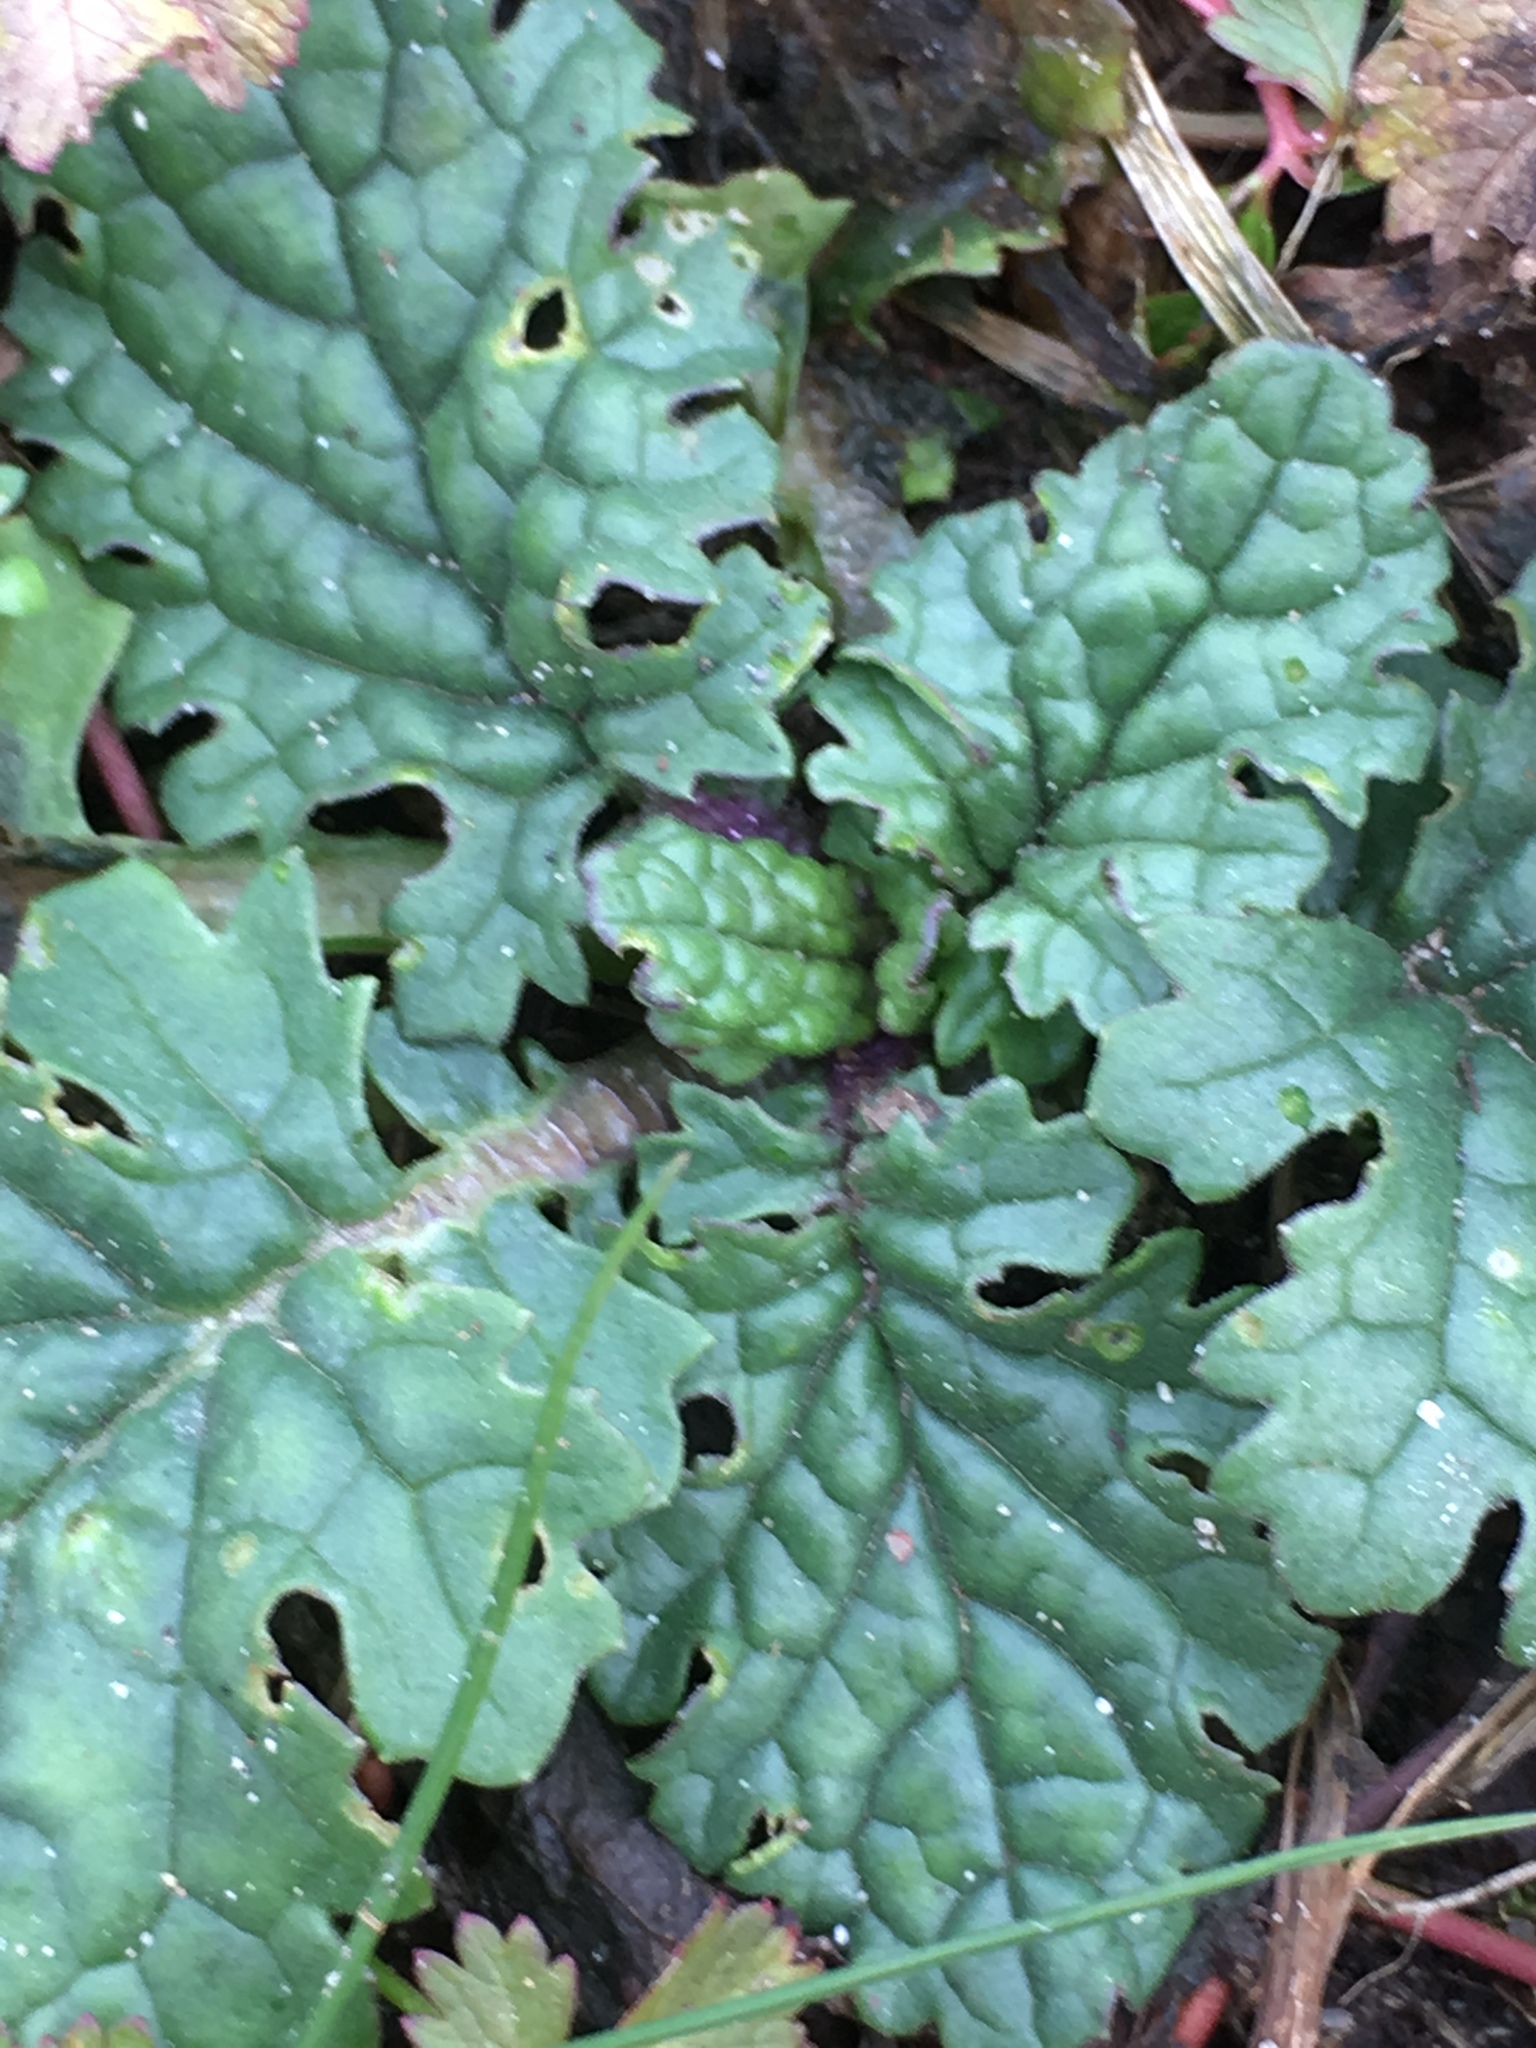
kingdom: Plantae
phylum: Tracheophyta
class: Magnoliopsida
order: Asterales
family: Asteraceae
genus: Jacobaea
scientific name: Jacobaea vulgaris
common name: Stinking willie
